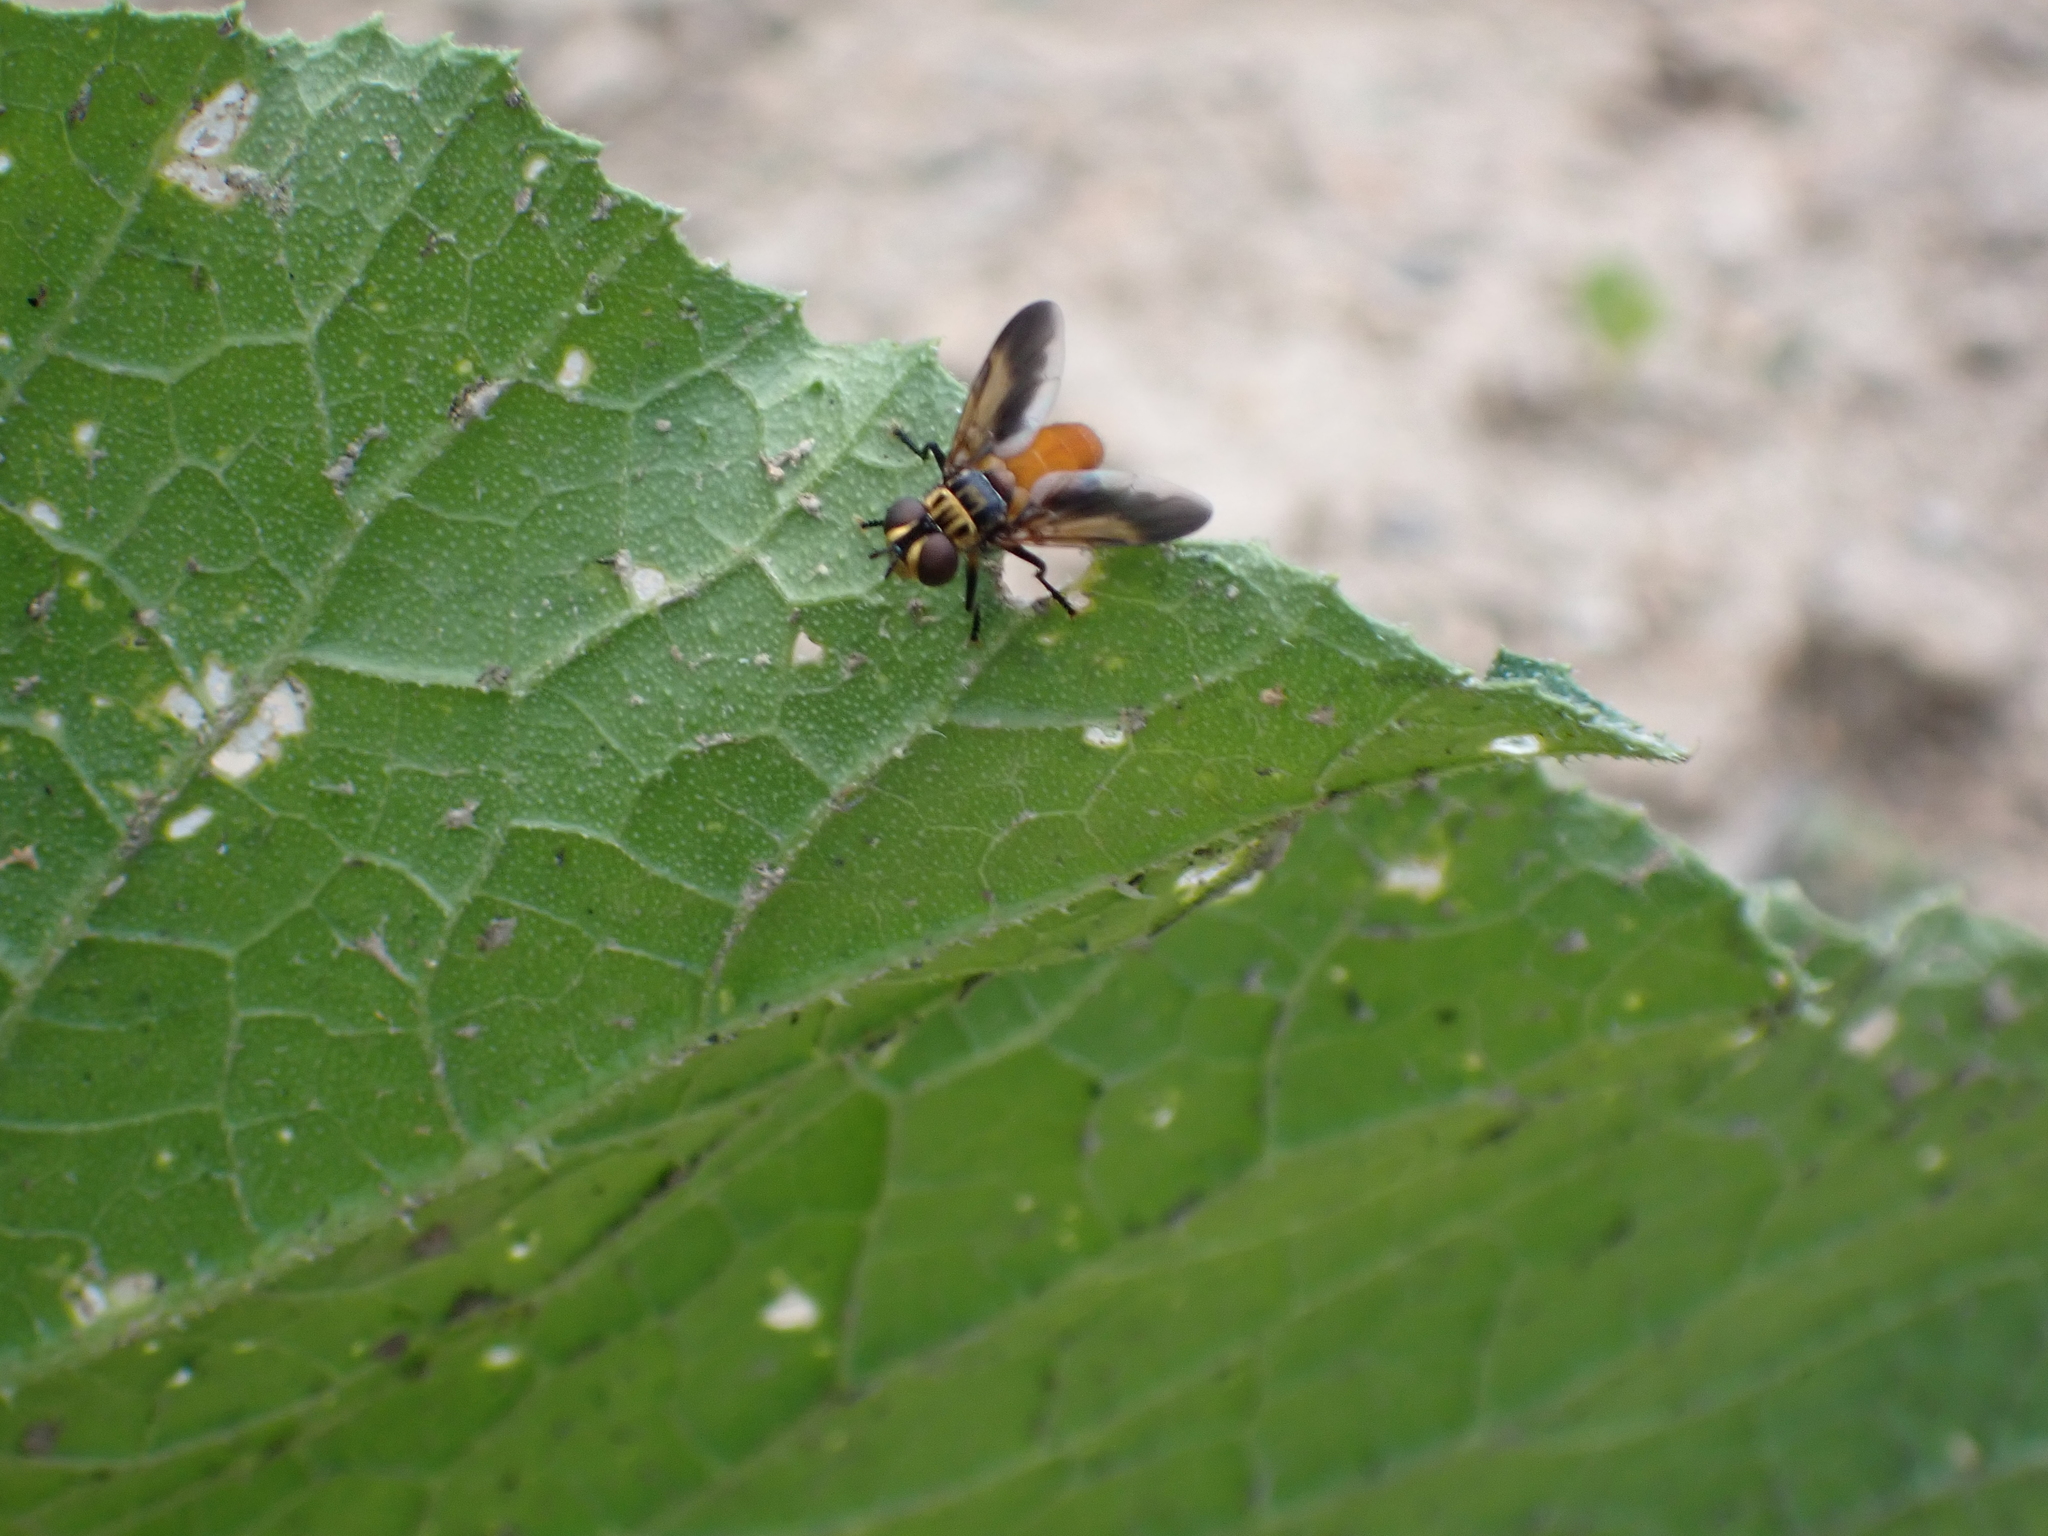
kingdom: Animalia
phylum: Arthropoda
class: Insecta
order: Diptera
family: Tachinidae
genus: Trichopoda
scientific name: Trichopoda pennipes
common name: Tachinid fly
